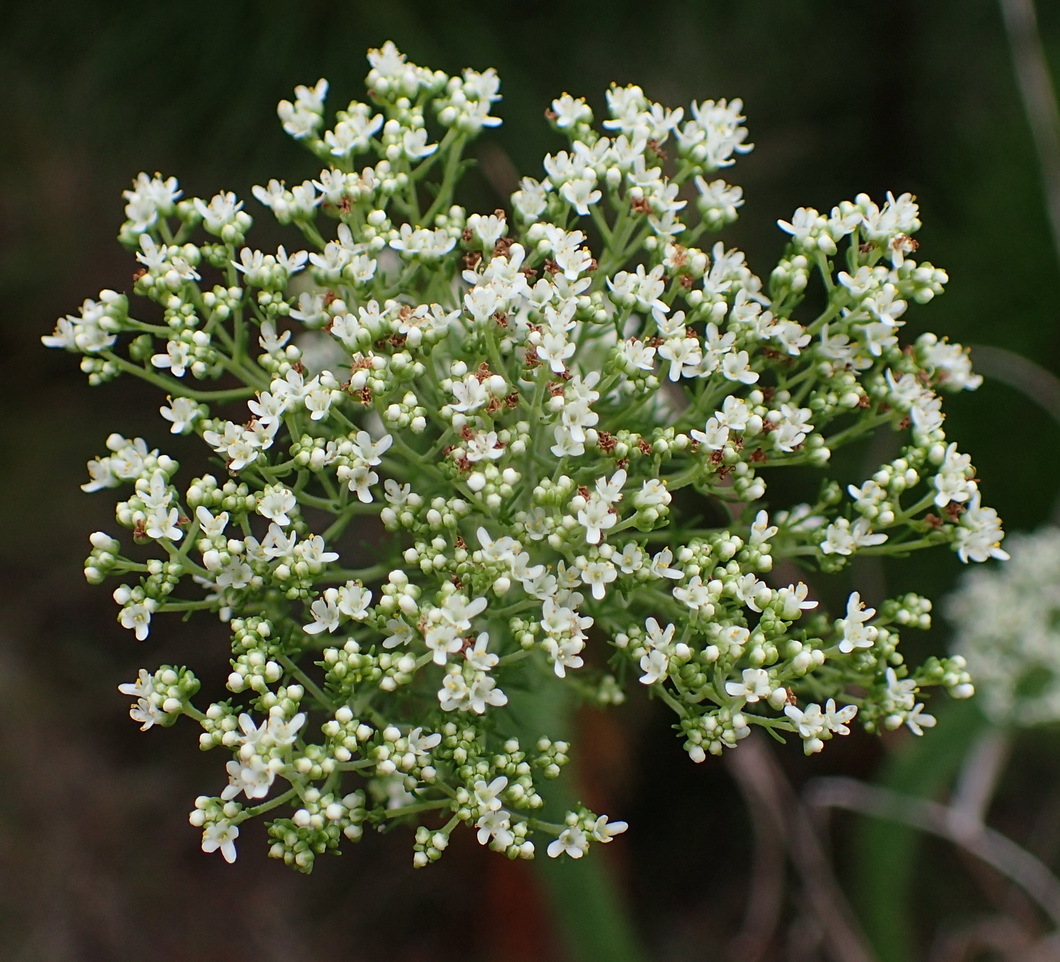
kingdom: Plantae
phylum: Tracheophyta
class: Magnoliopsida
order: Lamiales
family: Scrophulariaceae
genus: Selago
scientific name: Selago corymbosa
